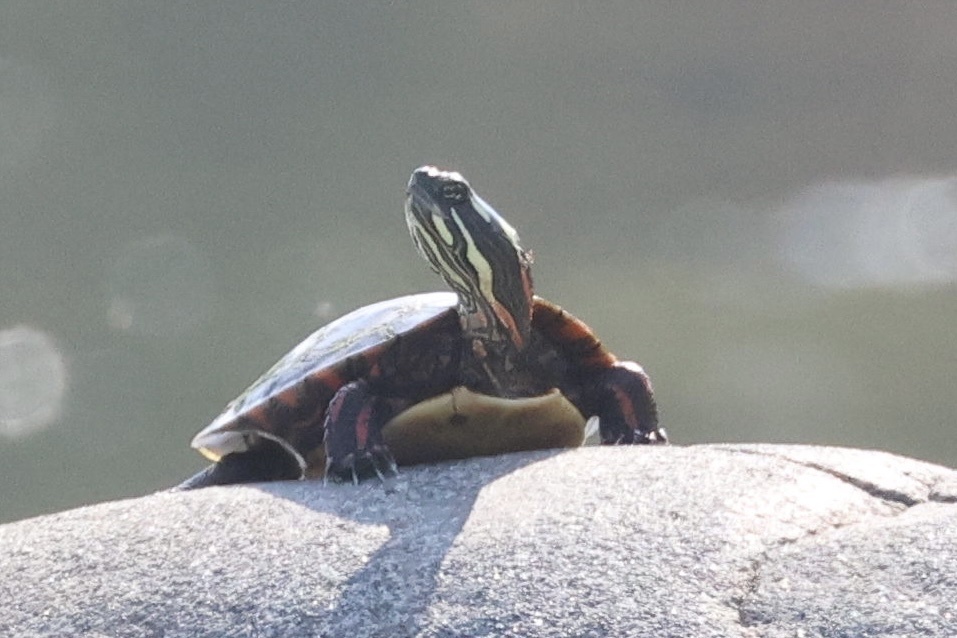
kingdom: Animalia
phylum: Chordata
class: Testudines
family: Emydidae
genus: Chrysemys
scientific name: Chrysemys picta
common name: Painted turtle
